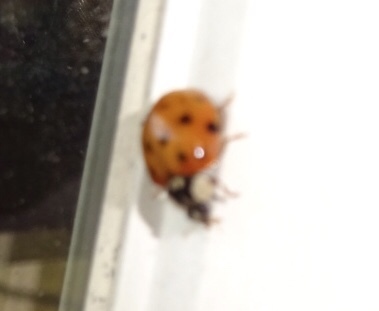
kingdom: Animalia
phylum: Arthropoda
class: Insecta
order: Coleoptera
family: Coccinellidae
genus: Harmonia
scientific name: Harmonia axyridis
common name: Harlequin ladybird
